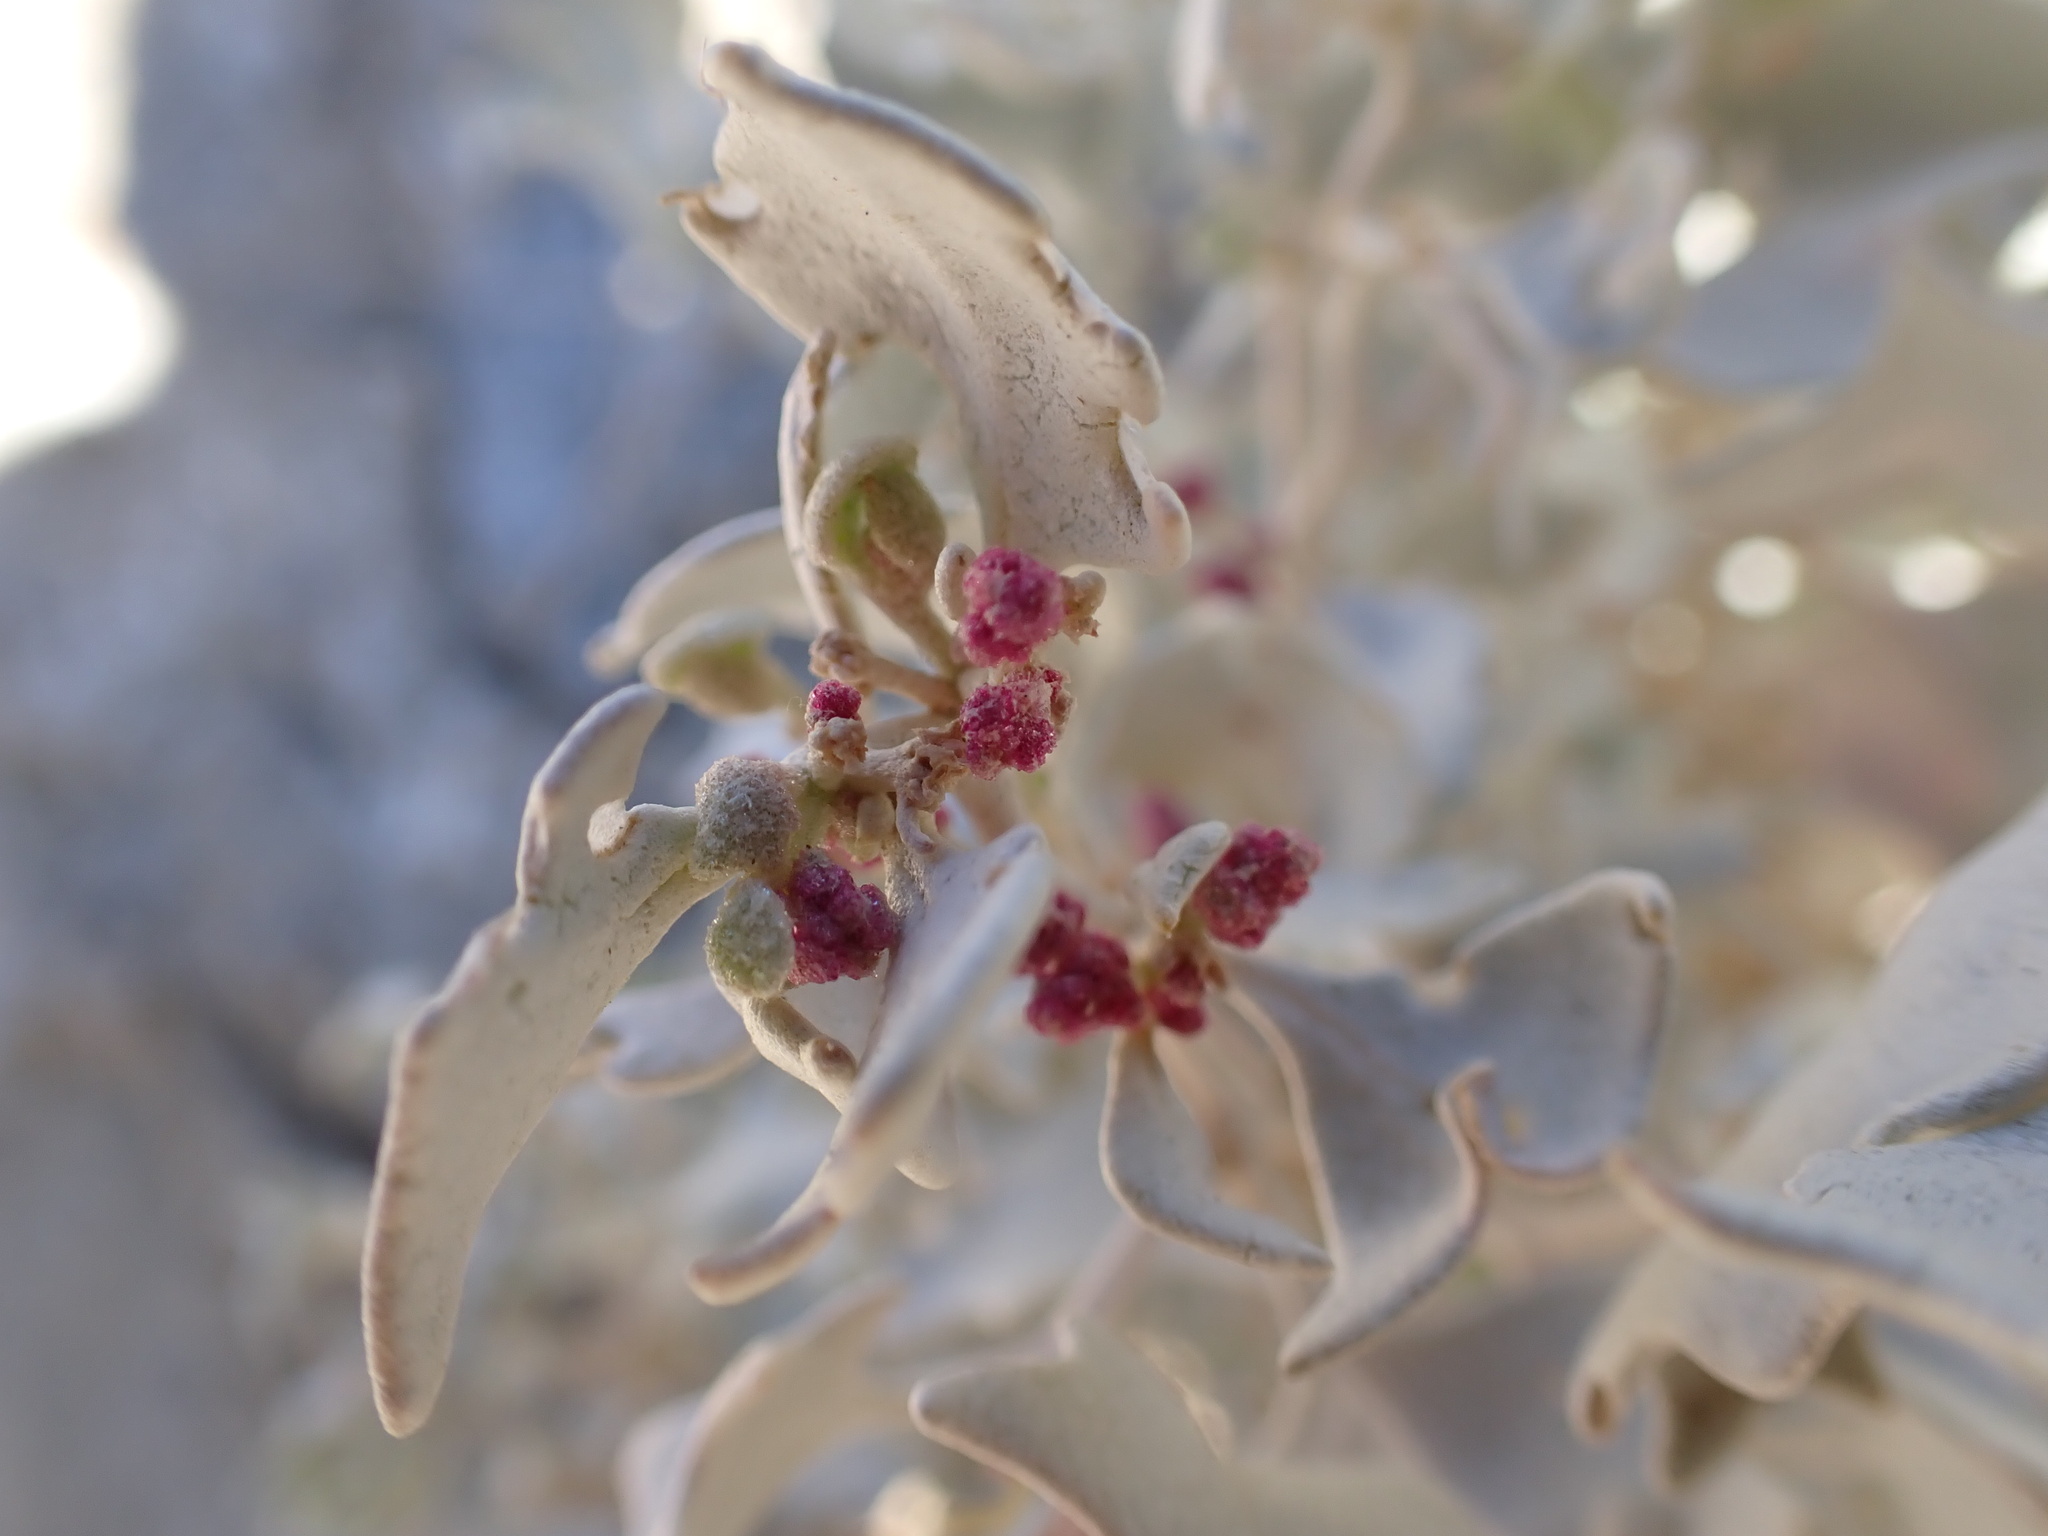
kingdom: Plantae
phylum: Tracheophyta
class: Magnoliopsida
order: Caryophyllales
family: Amaranthaceae
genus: Atriplex
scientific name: Atriplex hymenelytra
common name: Desert-holly
